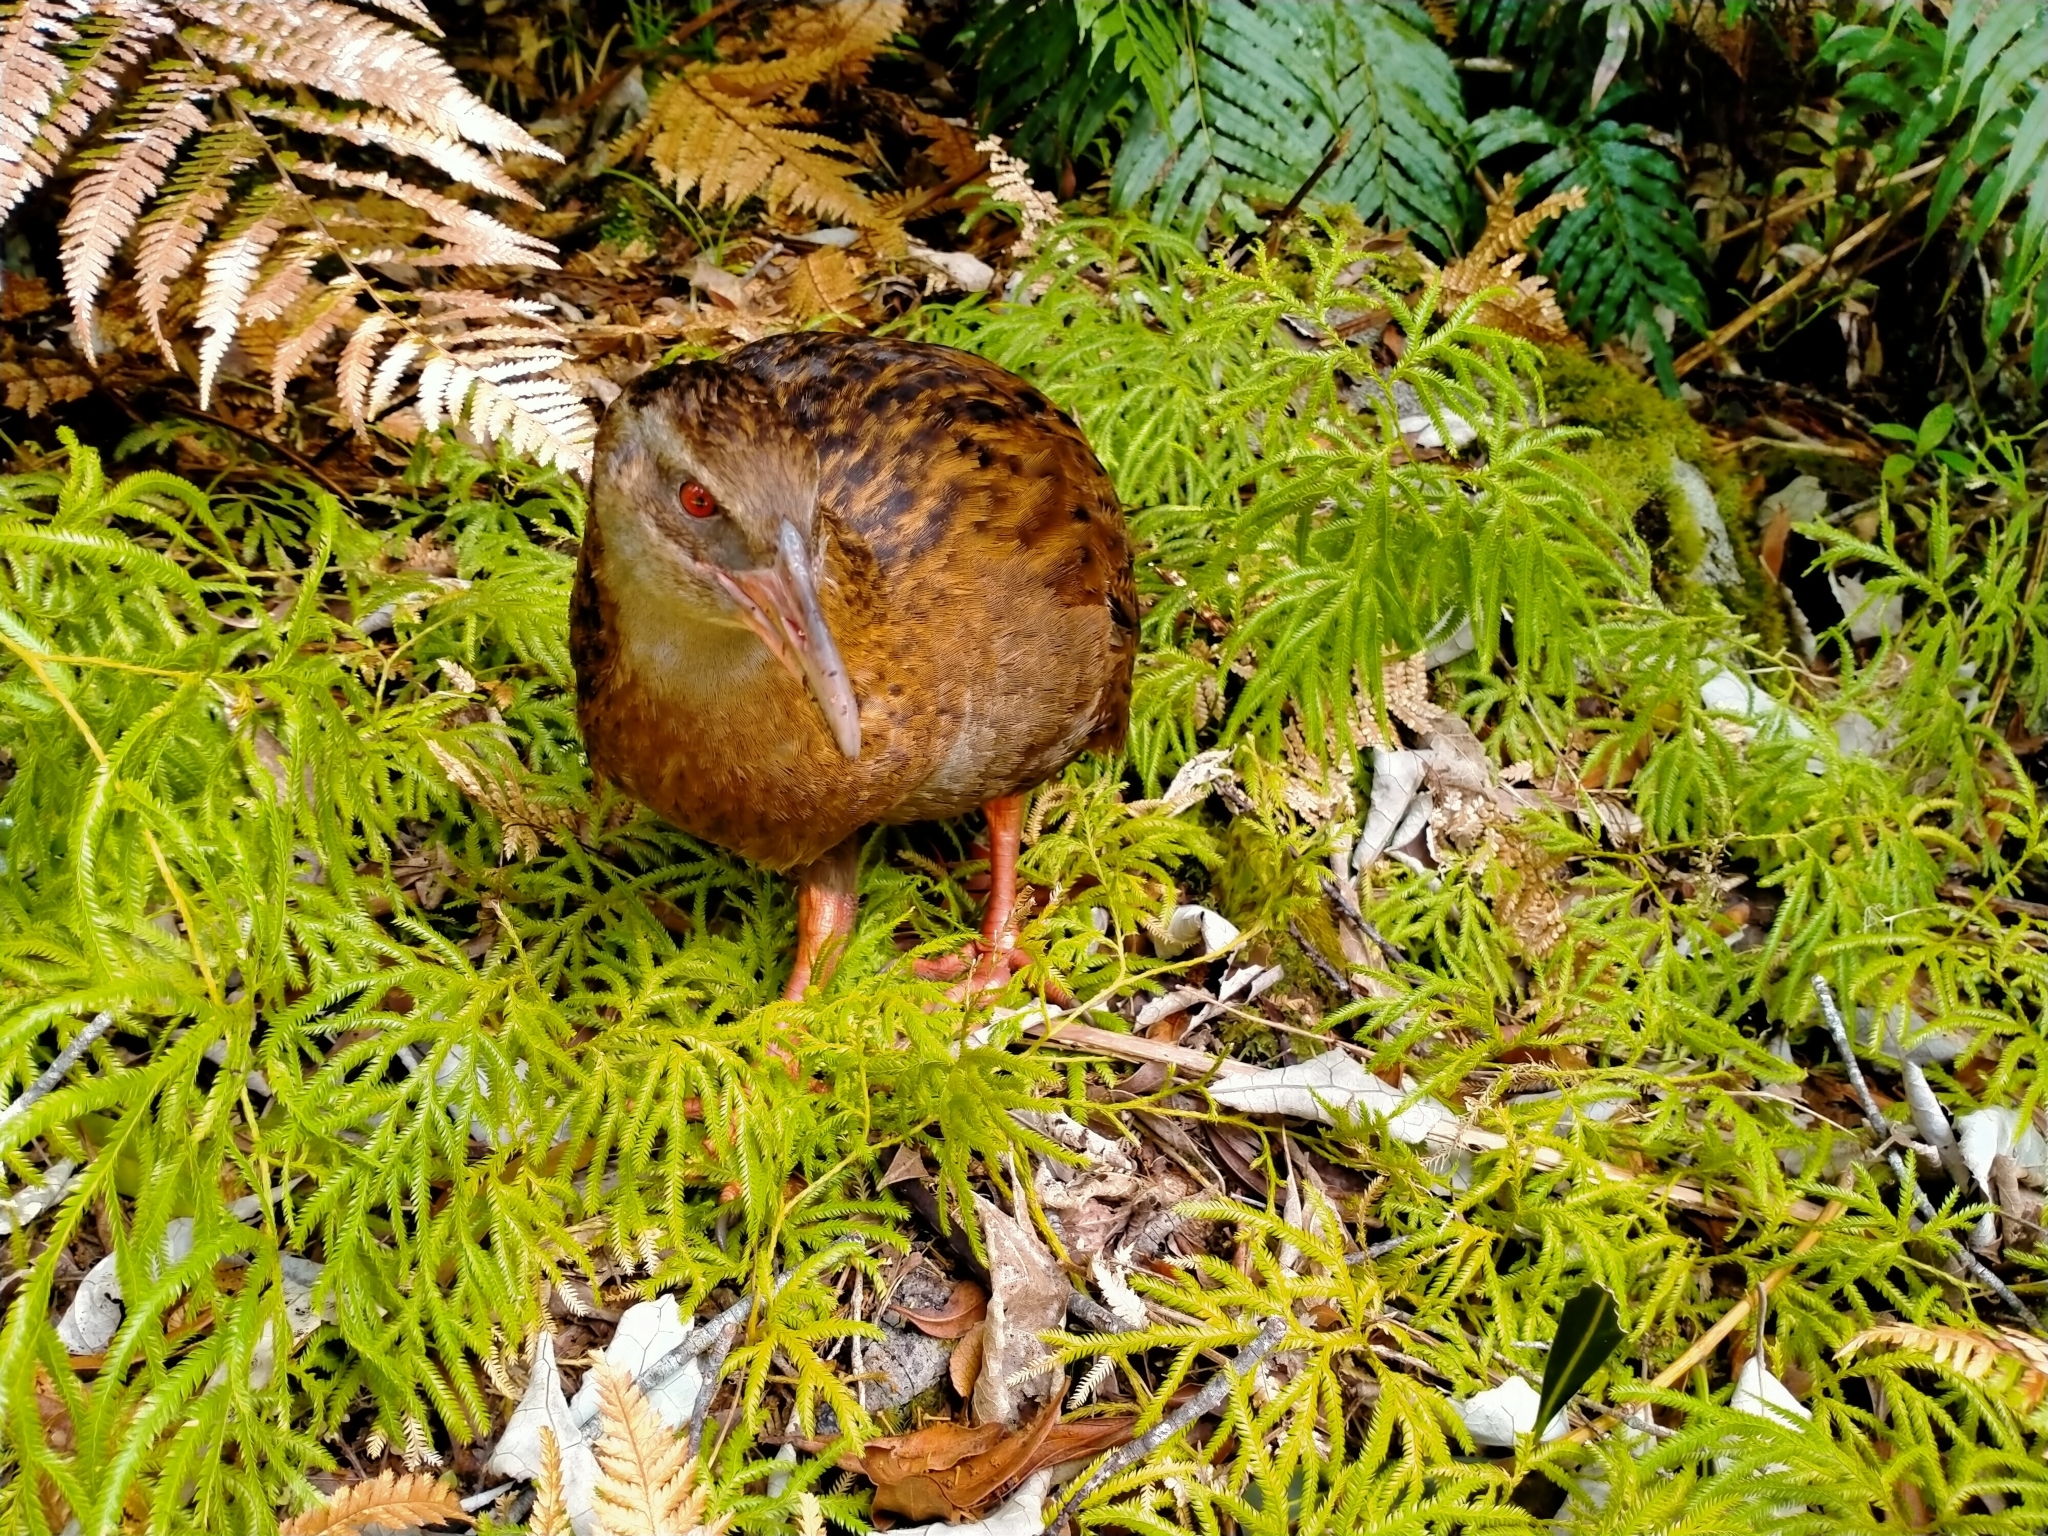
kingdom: Animalia
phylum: Chordata
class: Aves
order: Gruiformes
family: Rallidae
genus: Gallirallus
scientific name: Gallirallus australis
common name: Weka
